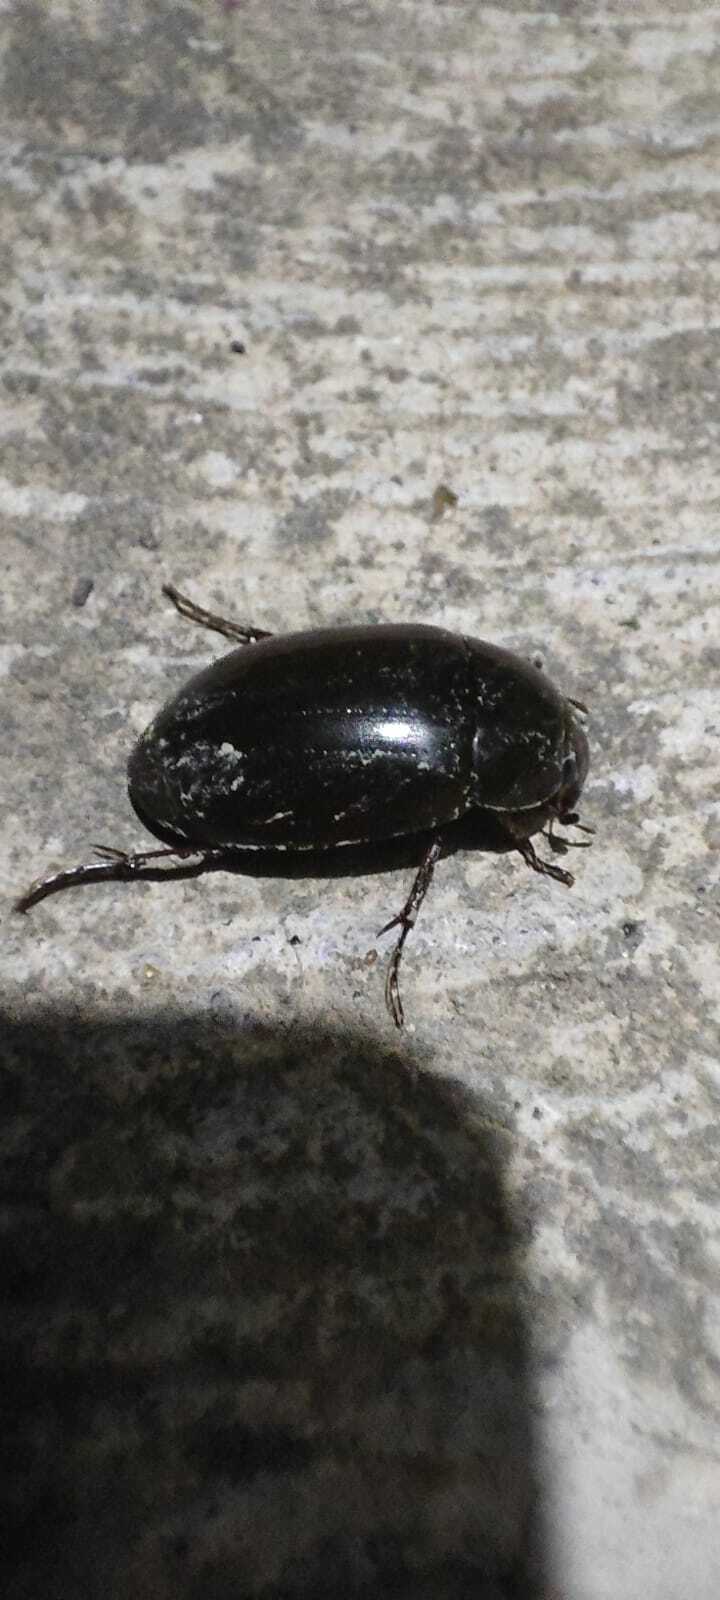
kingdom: Animalia
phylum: Arthropoda
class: Insecta
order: Coleoptera
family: Hydrophilidae
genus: Hydrochara
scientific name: Hydrochara caraboides
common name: Lesser silver water beetle
